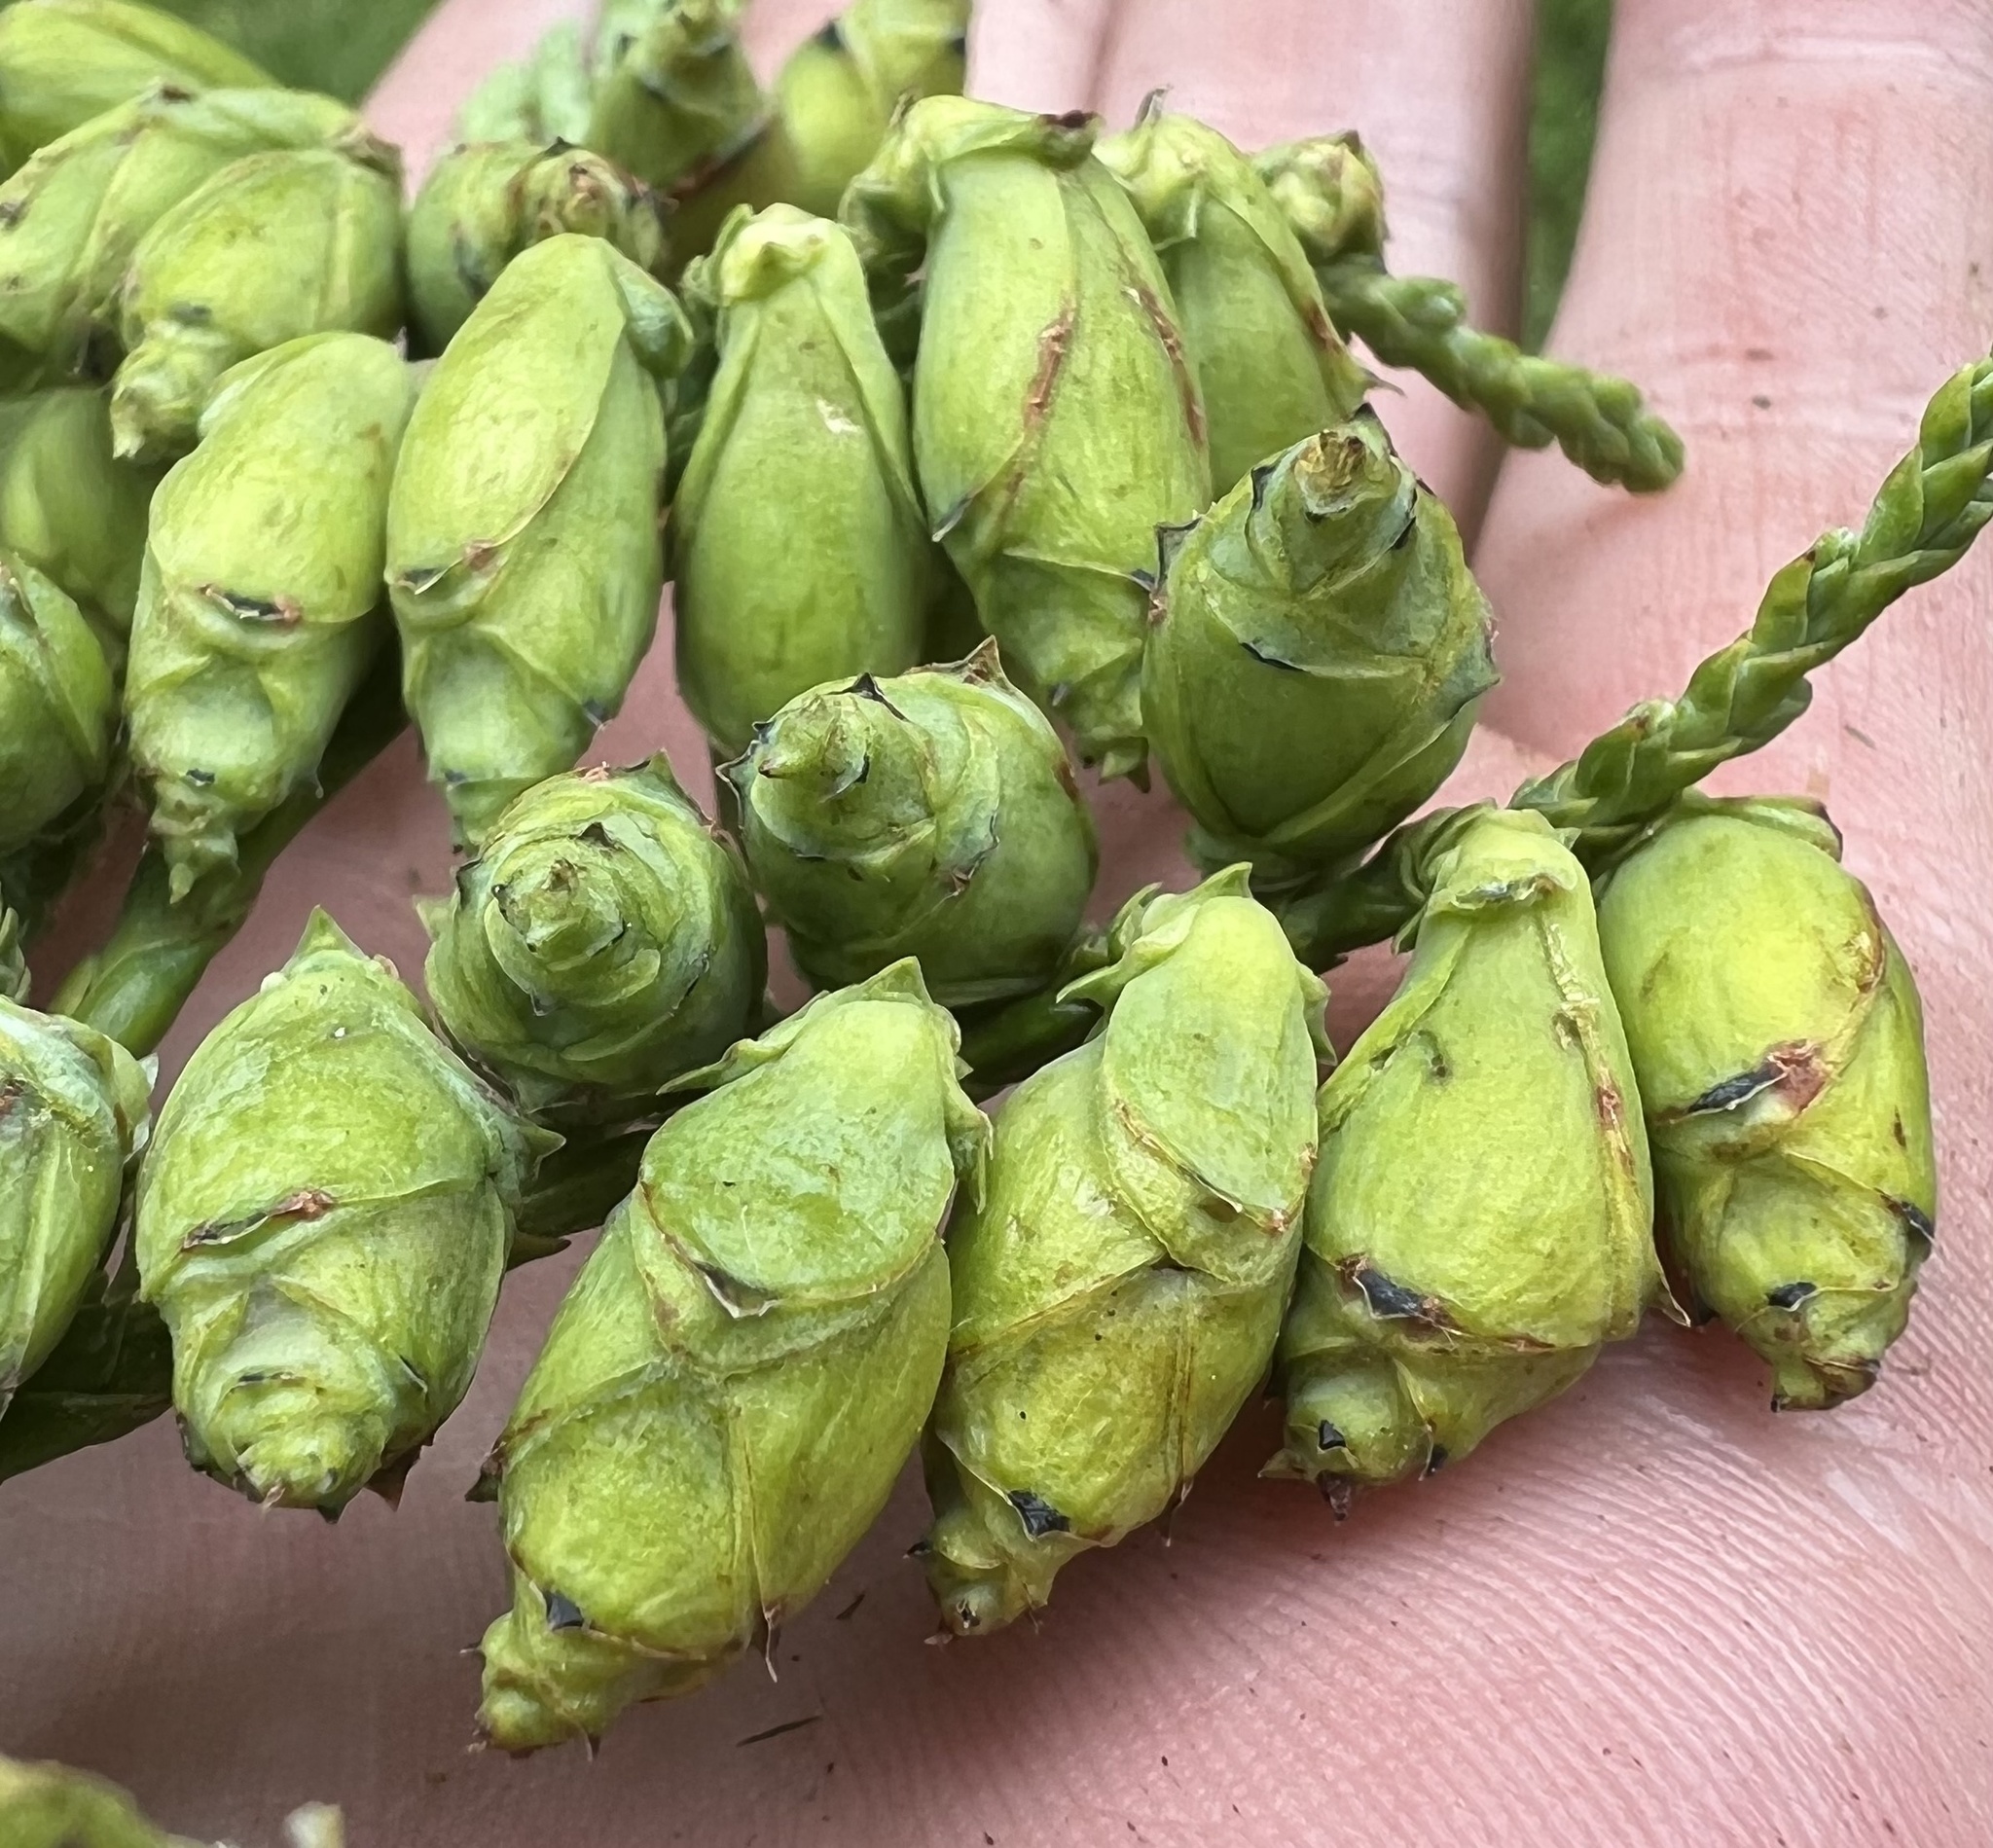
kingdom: Plantae
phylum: Tracheophyta
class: Pinopsida
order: Pinales
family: Cupressaceae
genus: Thuja
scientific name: Thuja plicata
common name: Western red-cedar
